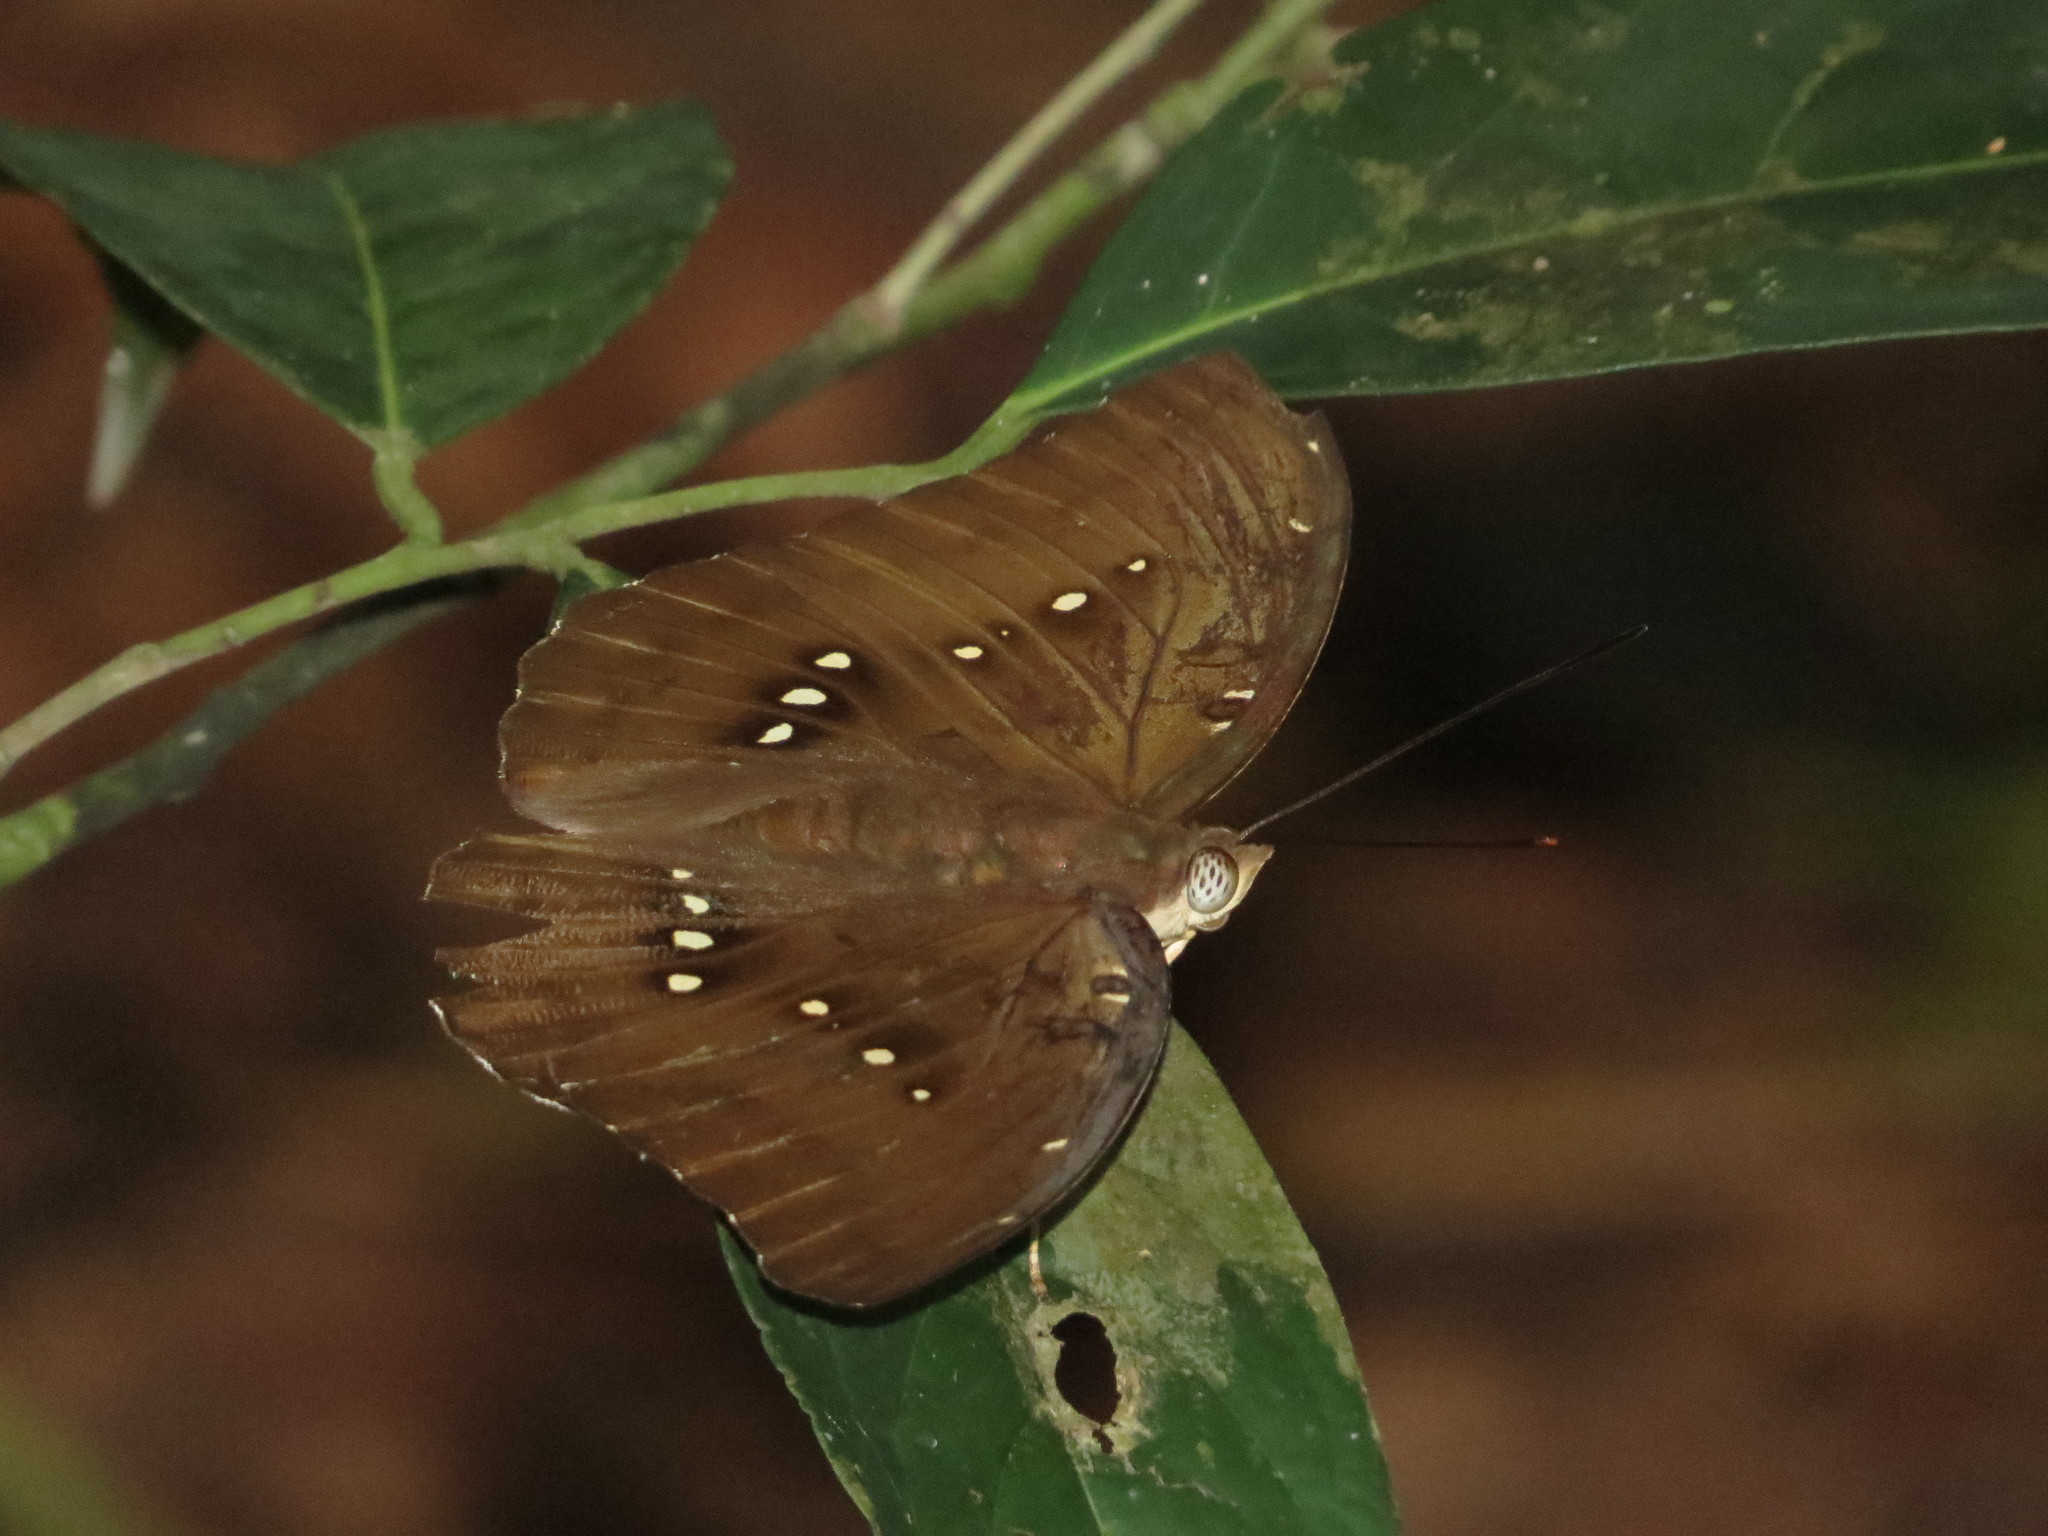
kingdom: Animalia
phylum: Arthropoda
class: Insecta
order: Lepidoptera
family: Nymphalidae
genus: Euthalia
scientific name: Euthalia Bassarona dunya
